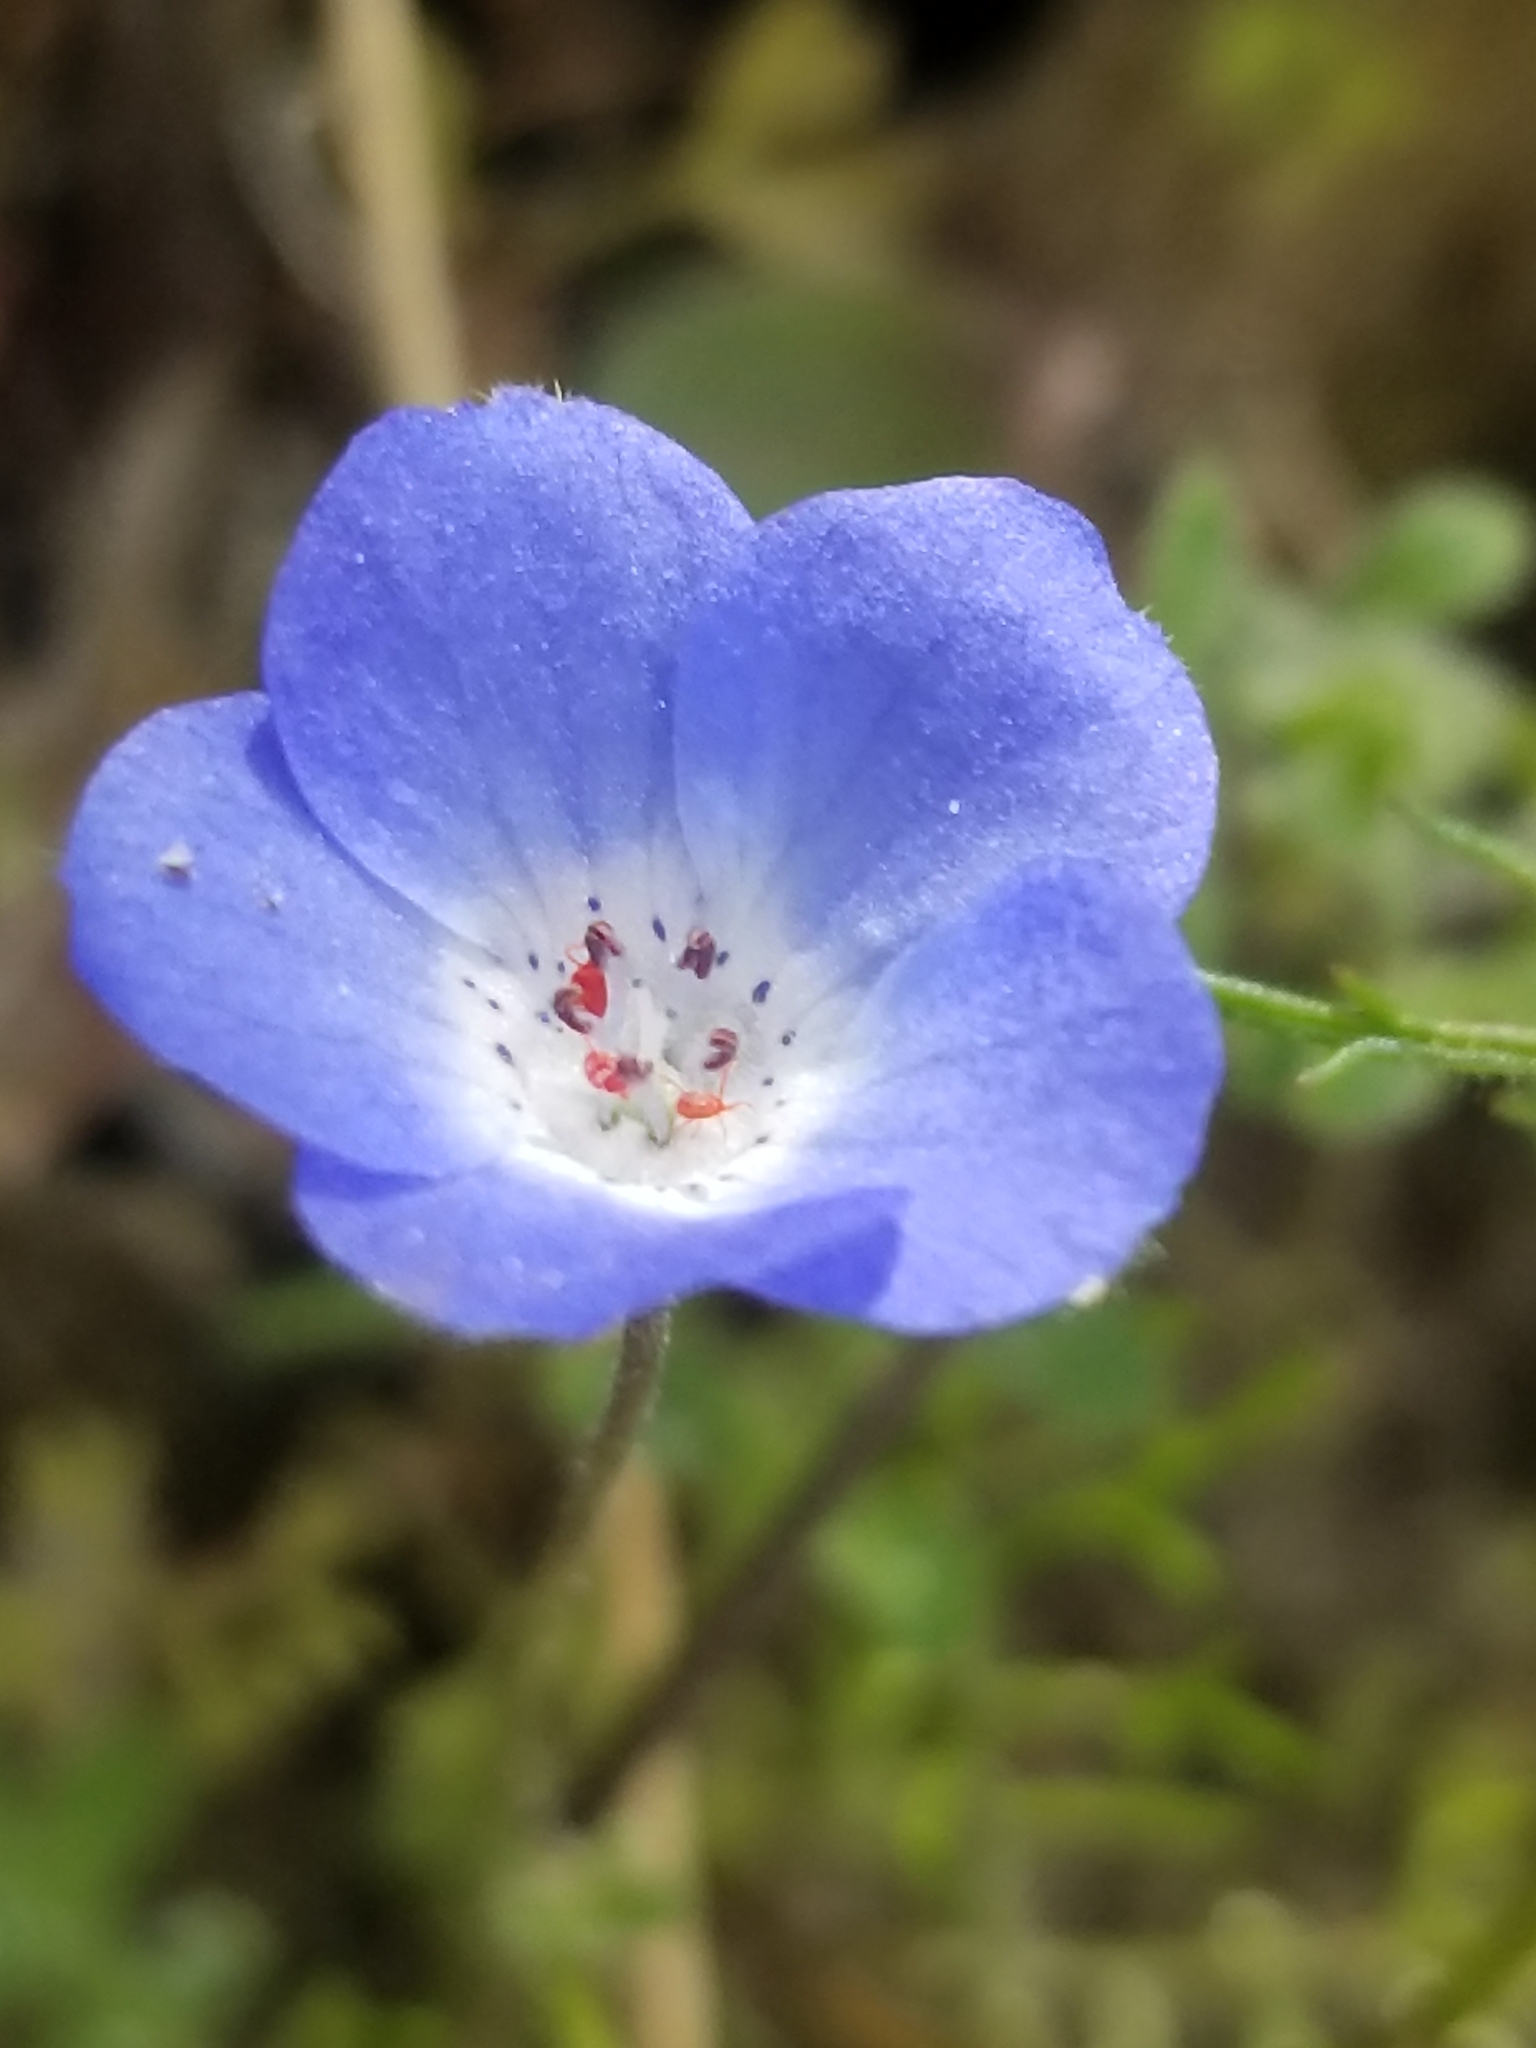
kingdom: Plantae
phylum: Tracheophyta
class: Magnoliopsida
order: Boraginales
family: Hydrophyllaceae
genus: Nemophila
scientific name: Nemophila menziesii
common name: Baby's-blue-eyes
